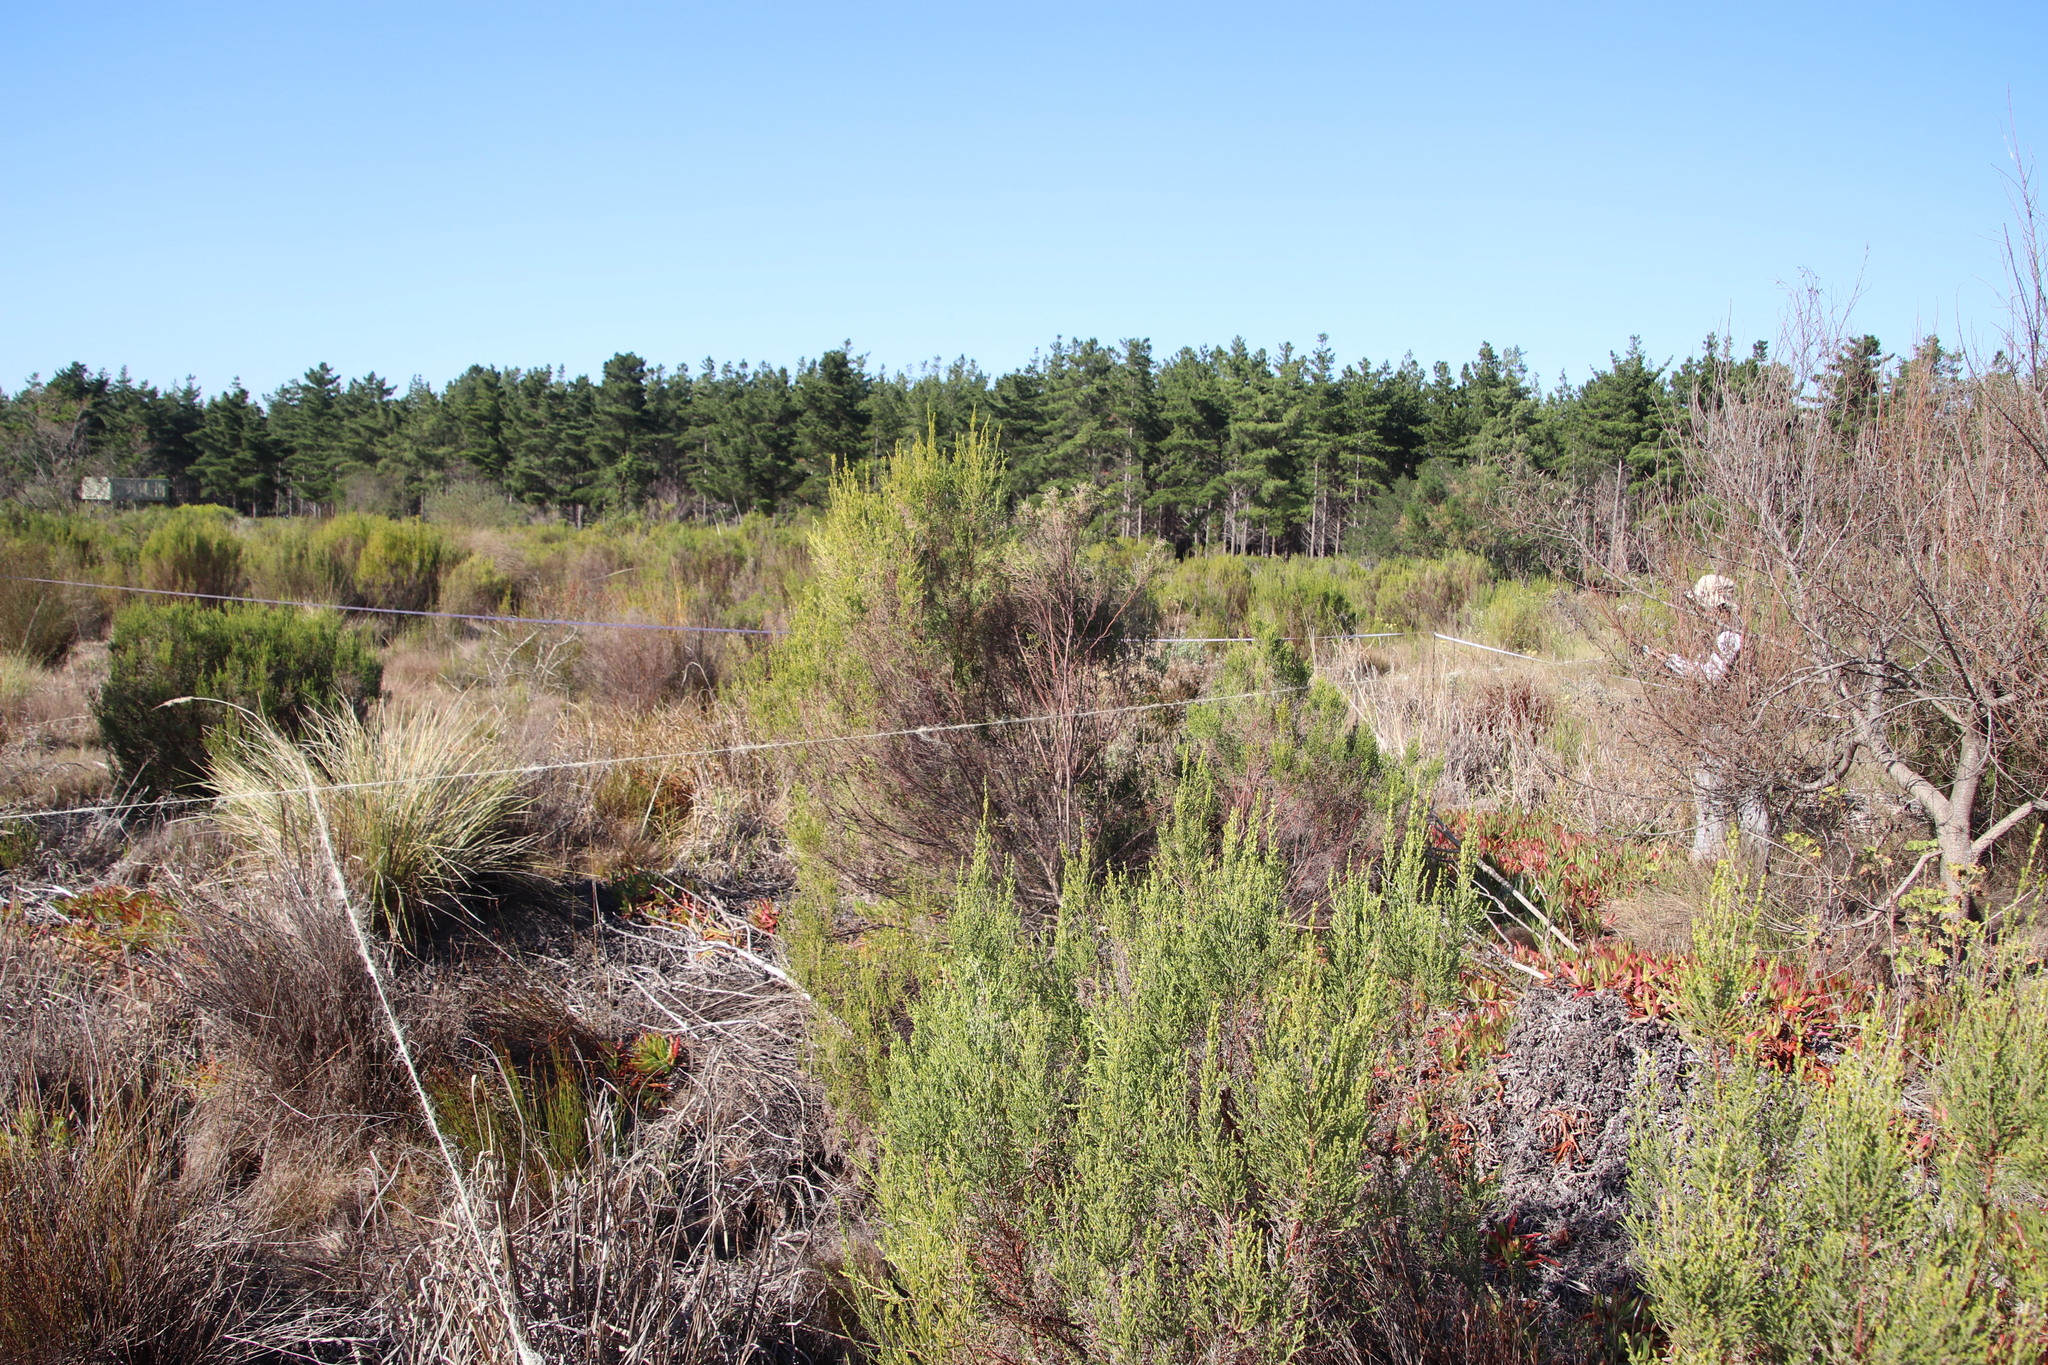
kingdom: Plantae
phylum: Tracheophyta
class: Magnoliopsida
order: Malvales
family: Thymelaeaceae
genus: Passerina
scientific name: Passerina corymbosa
